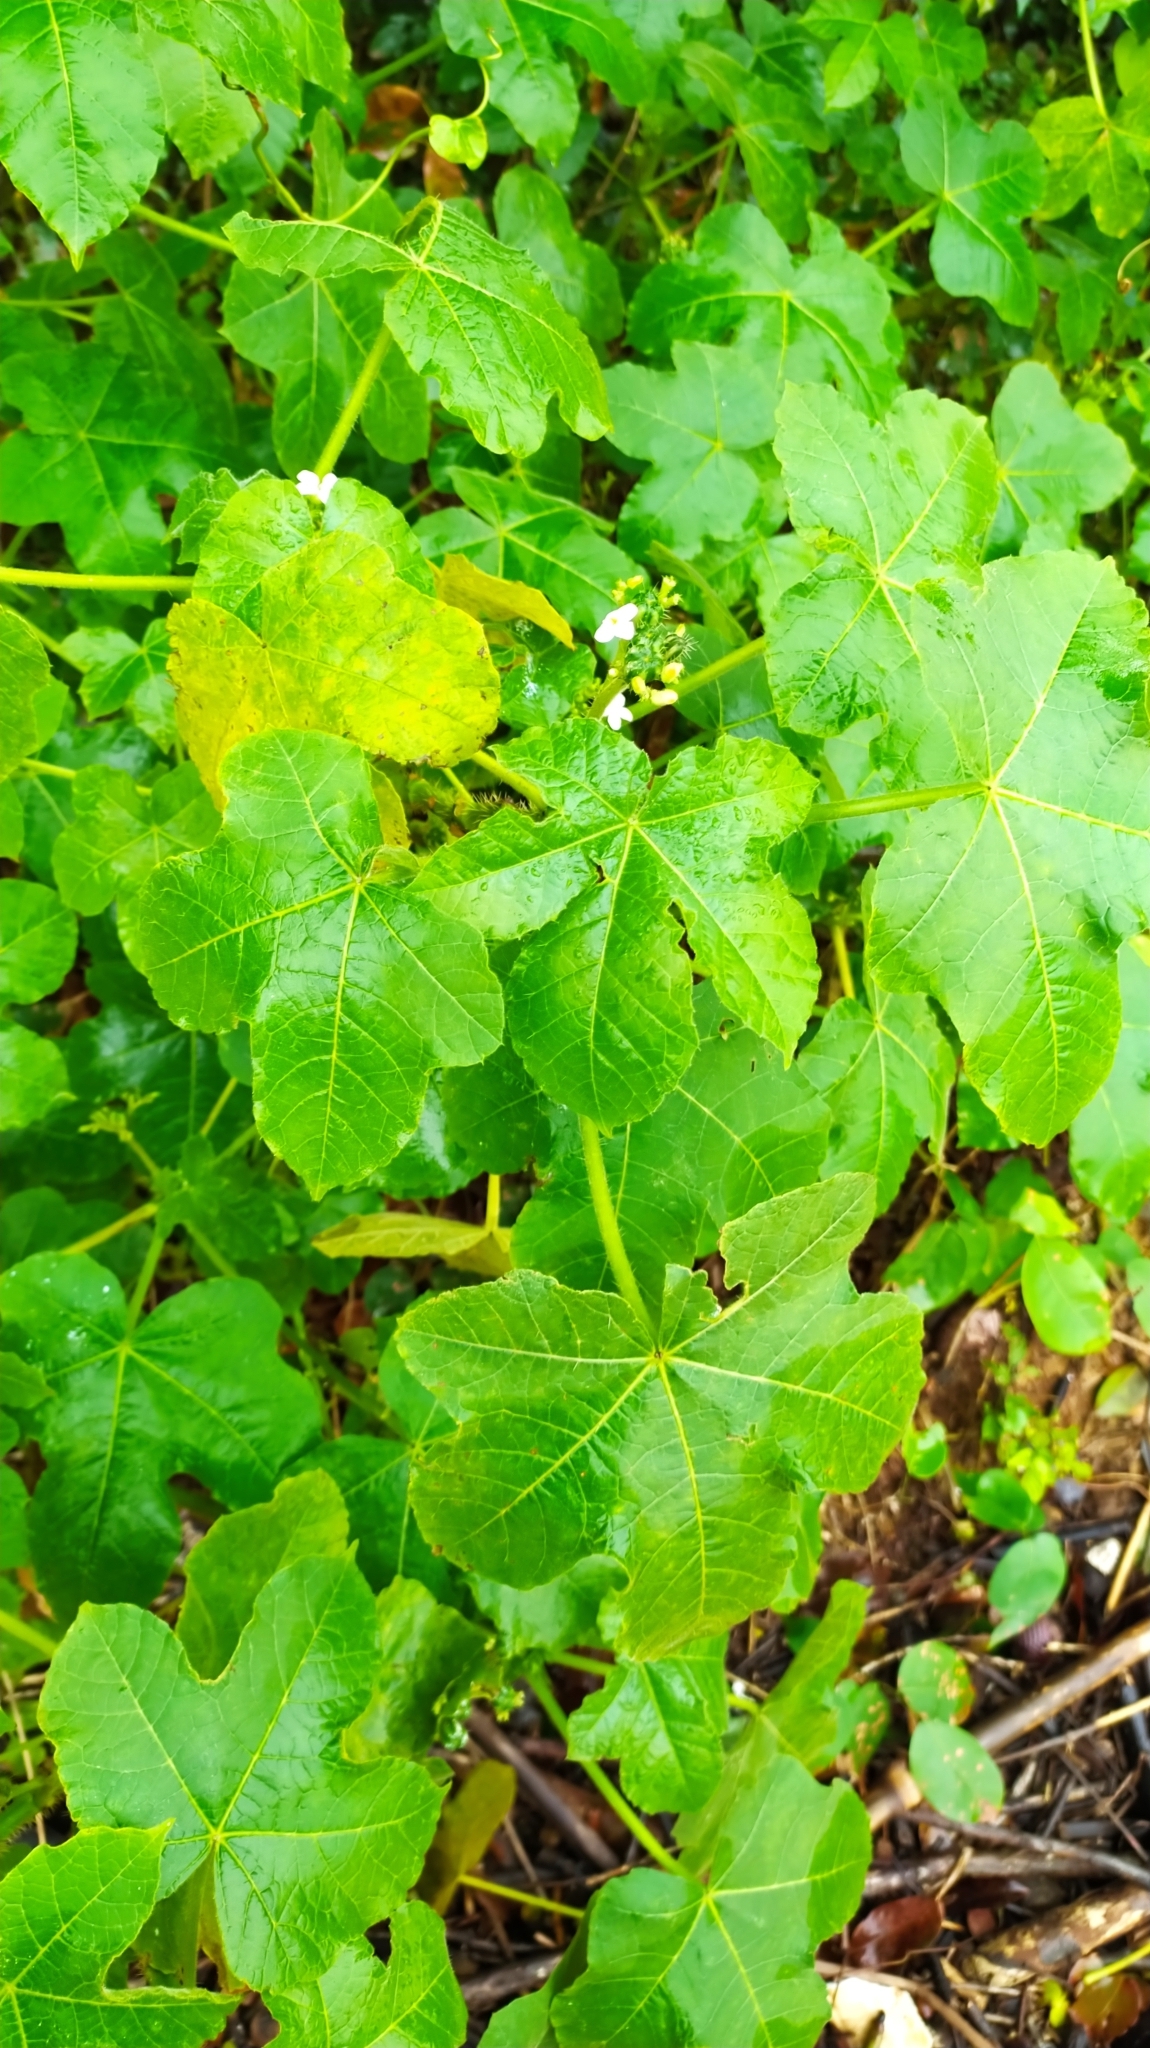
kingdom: Plantae
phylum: Tracheophyta
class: Magnoliopsida
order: Malpighiales
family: Euphorbiaceae
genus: Cnidoscolus
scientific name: Cnidoscolus urens
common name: Bull-nettle
